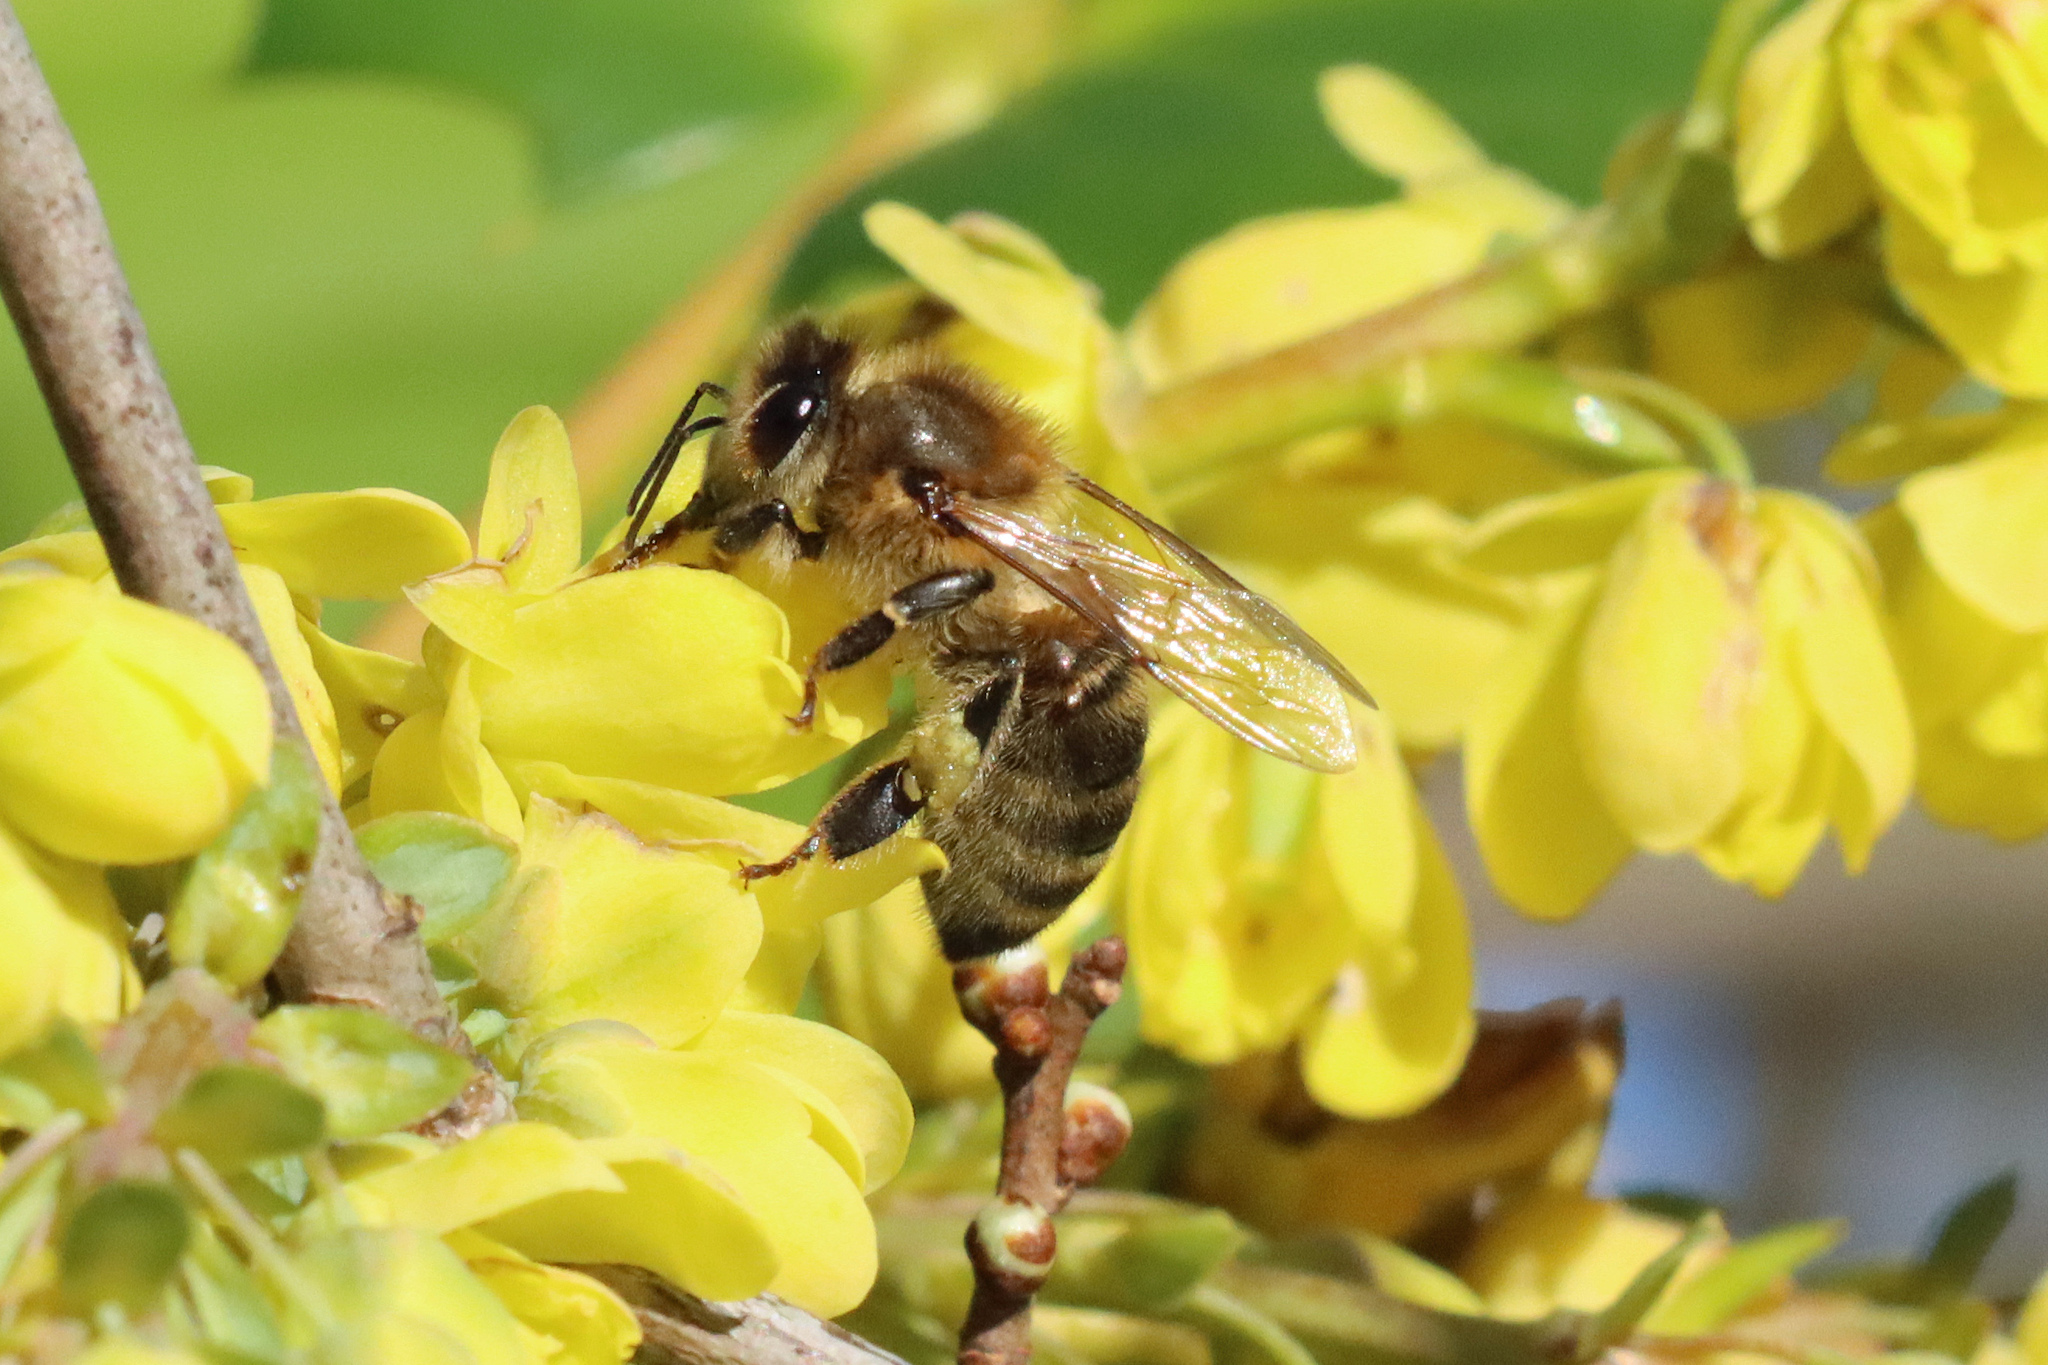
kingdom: Animalia
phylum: Arthropoda
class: Insecta
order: Hymenoptera
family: Apidae
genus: Apis
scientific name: Apis mellifera
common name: Honey bee
